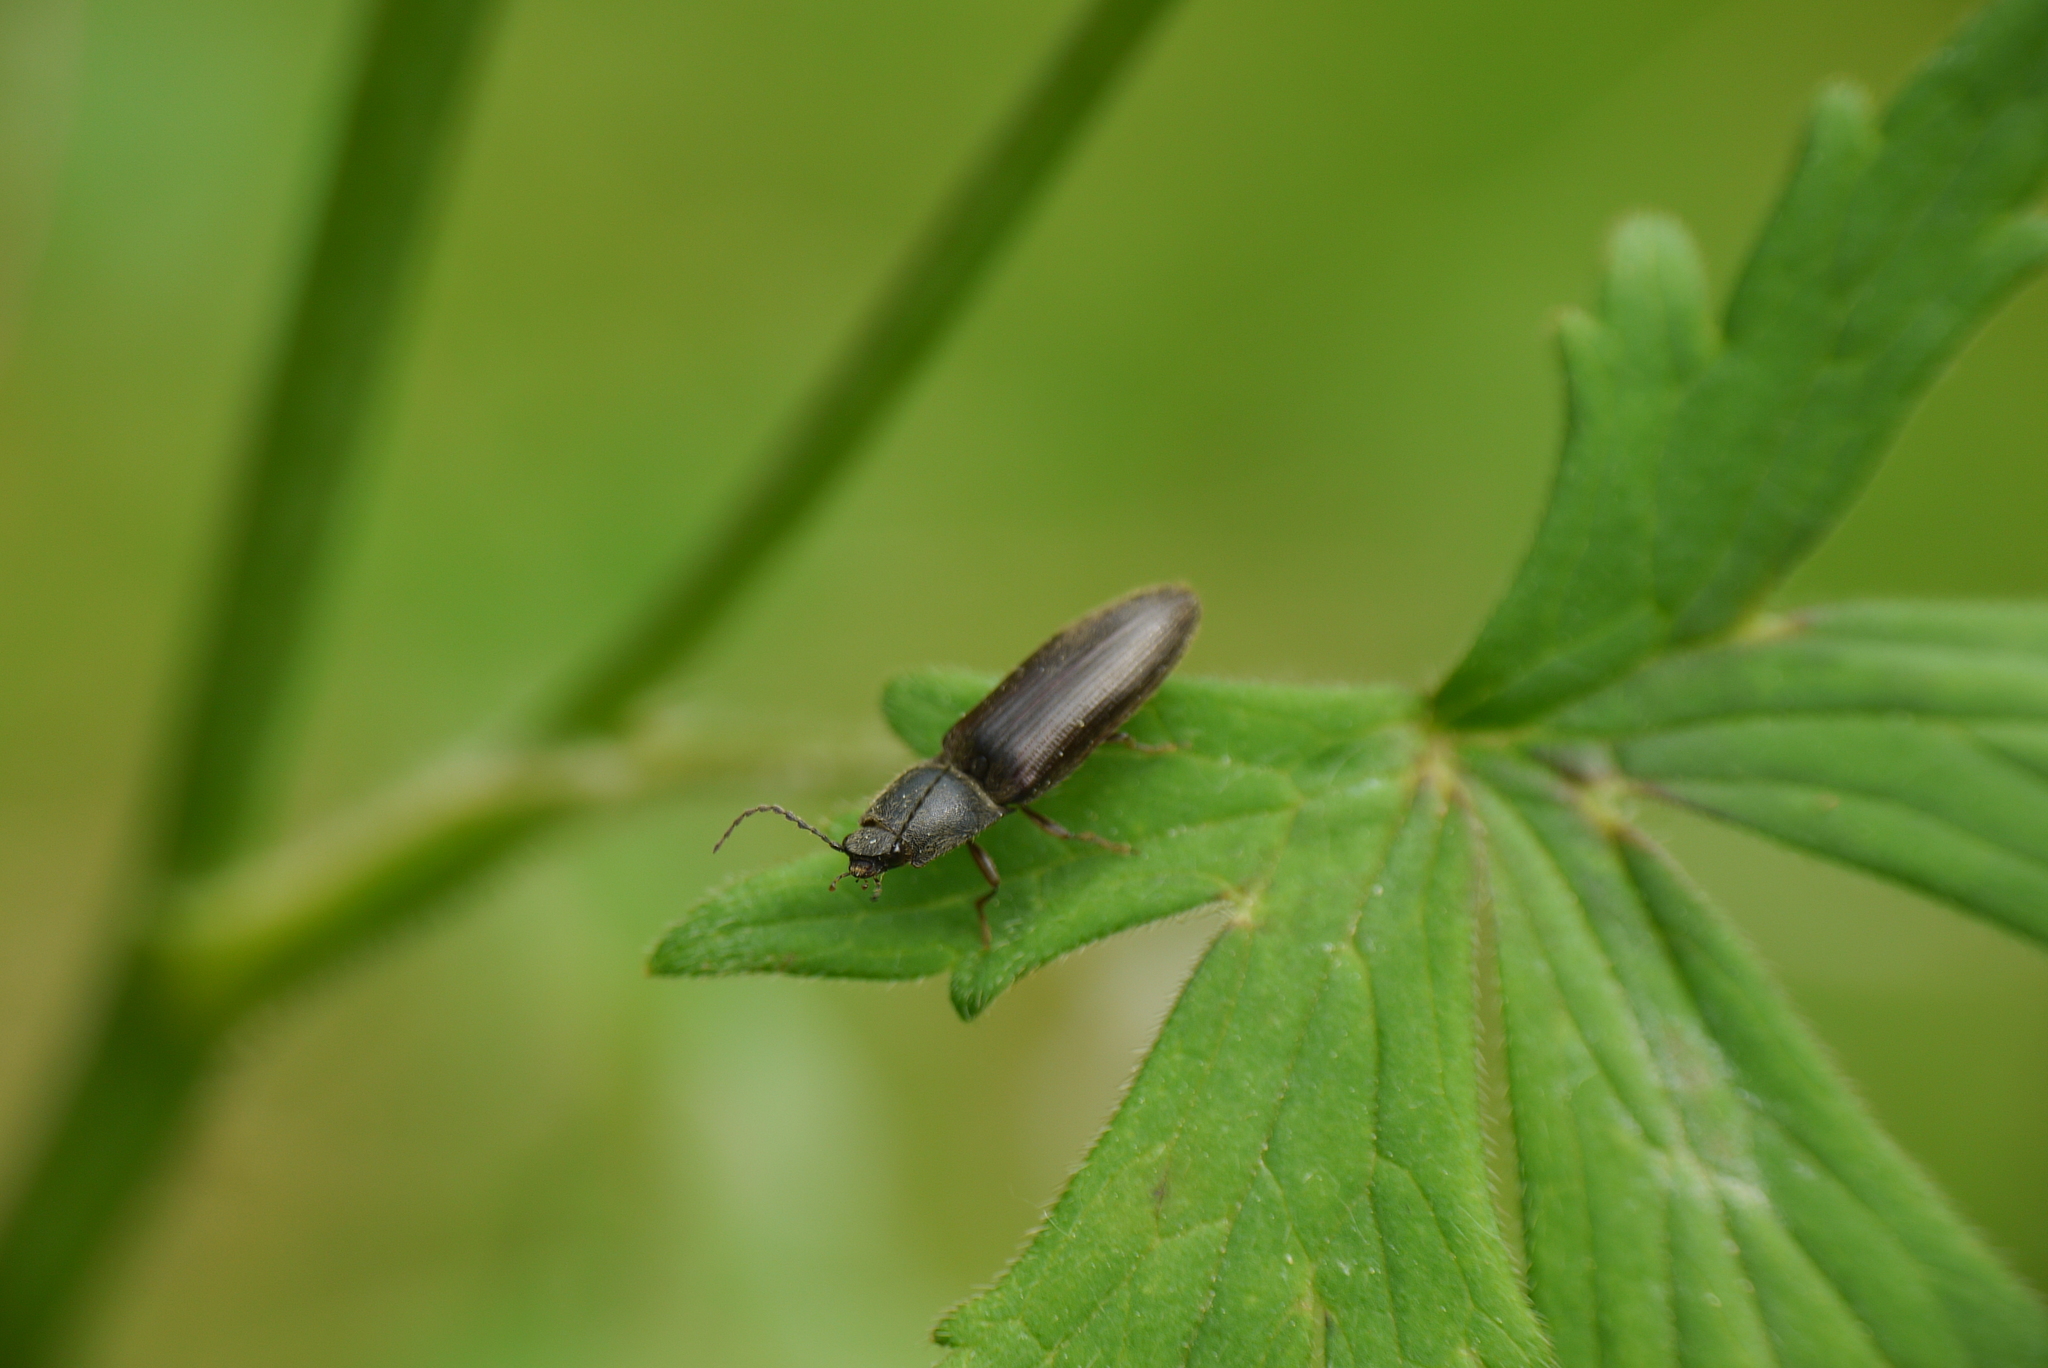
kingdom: Animalia
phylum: Arthropoda
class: Insecta
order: Coleoptera
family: Elateridae
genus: Athous
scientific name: Athous haemorrhoidalis
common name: Red-brown click beetle
